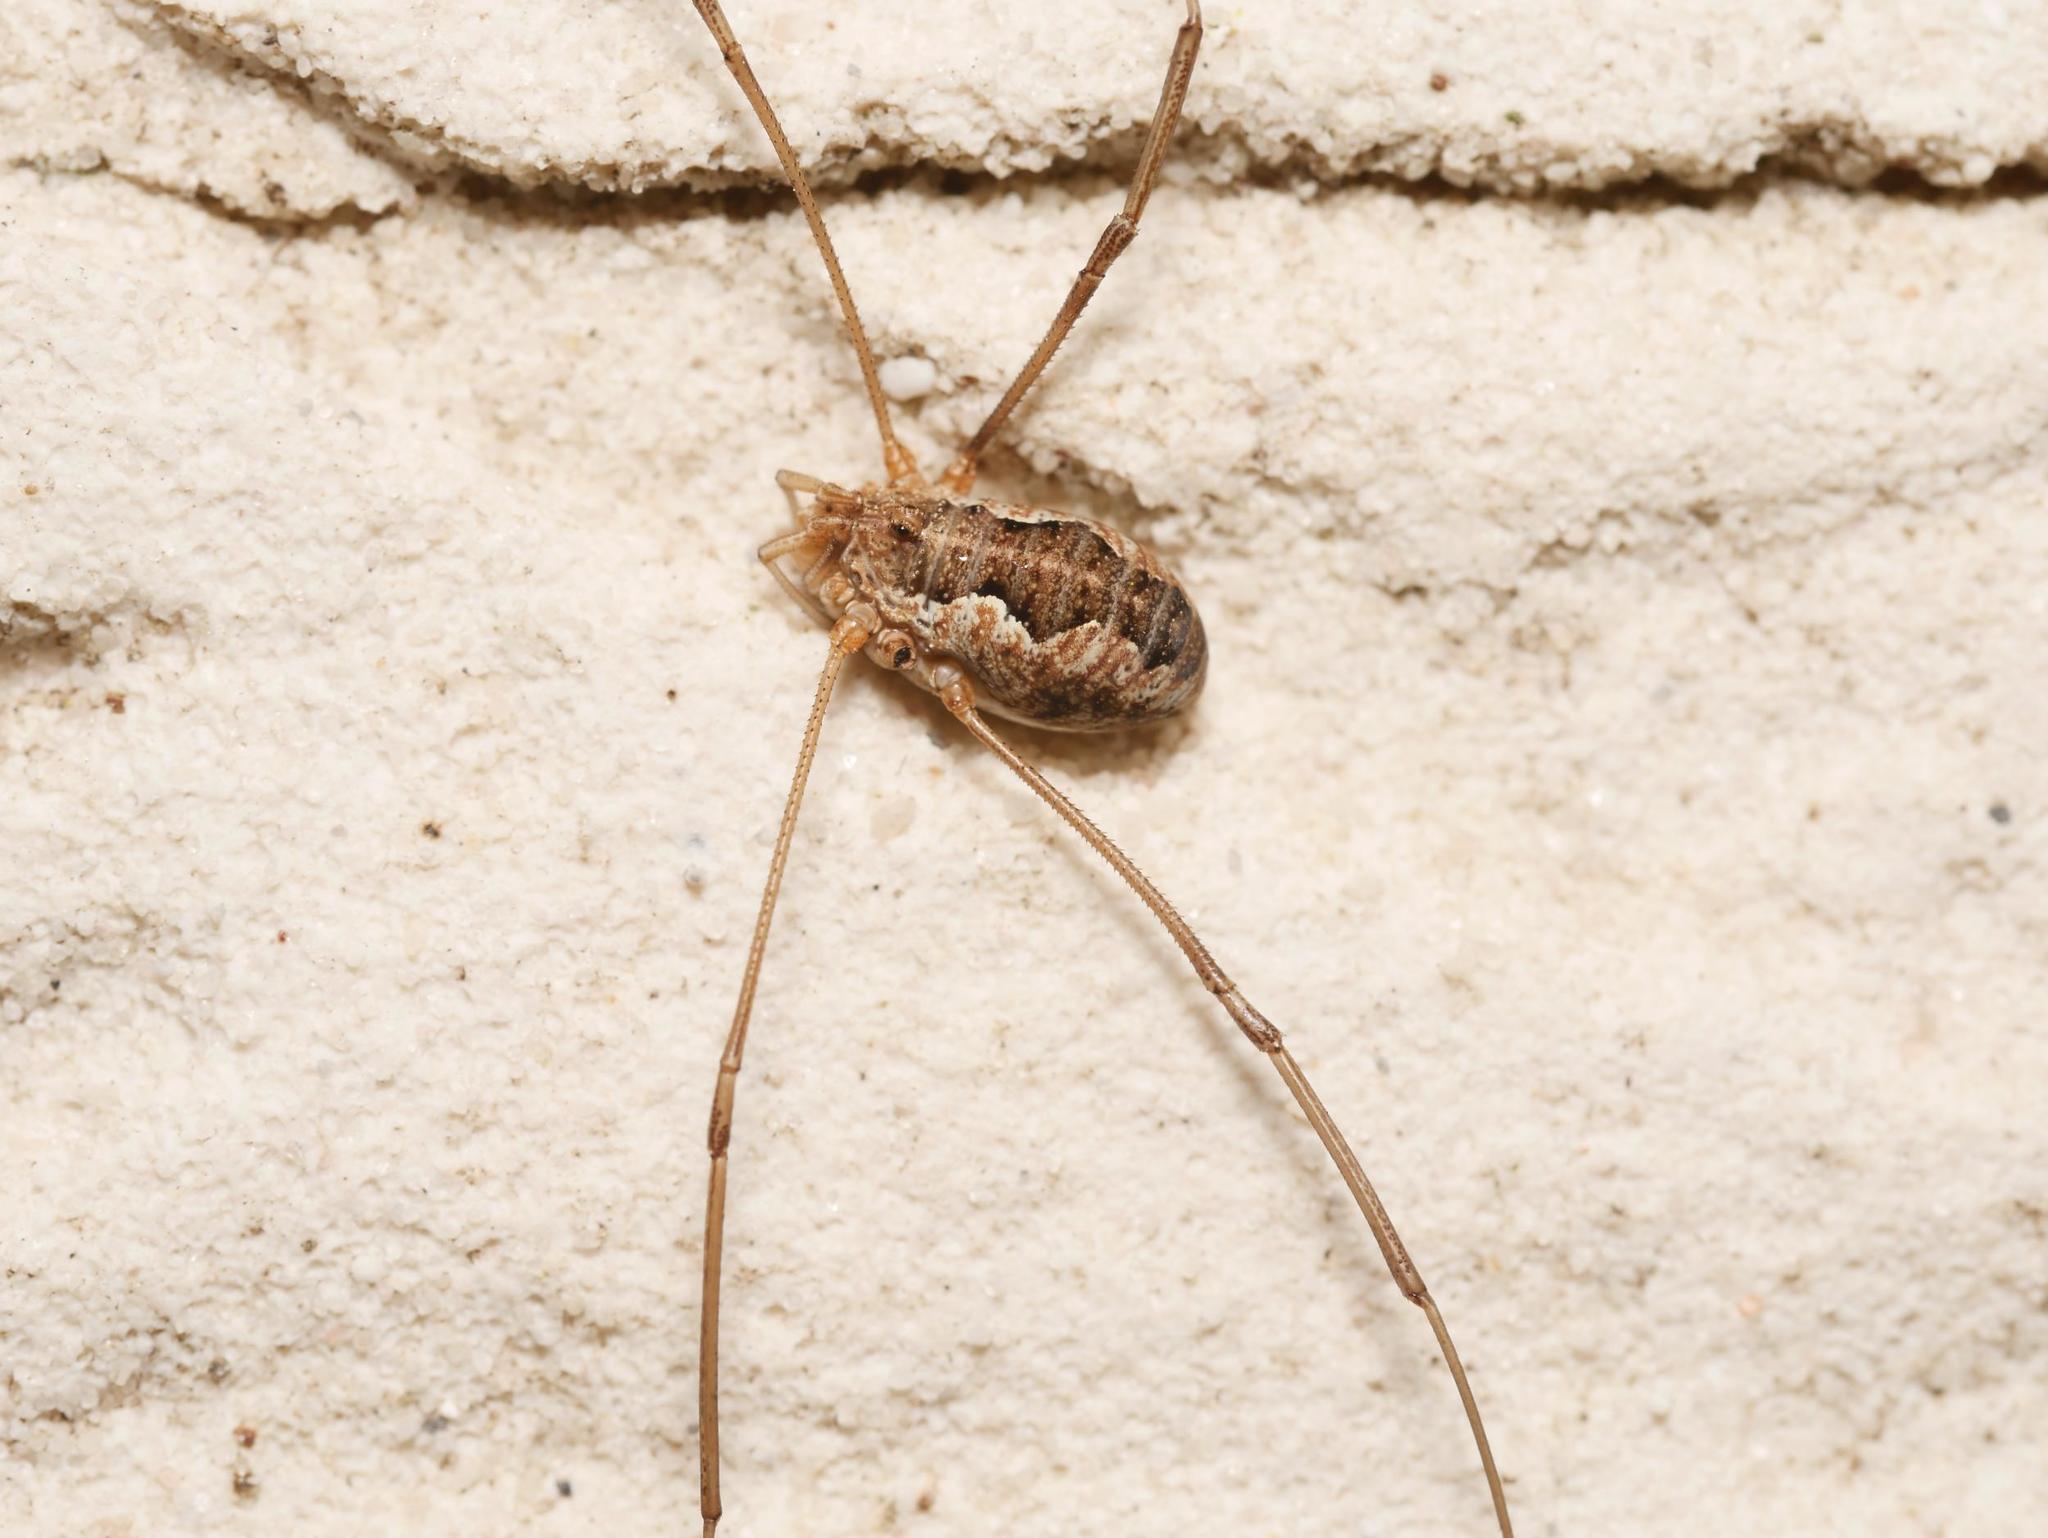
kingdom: Animalia
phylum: Arthropoda
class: Arachnida
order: Opiliones
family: Phalangiidae
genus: Phalangium
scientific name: Phalangium opilio
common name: Daddy longleg
